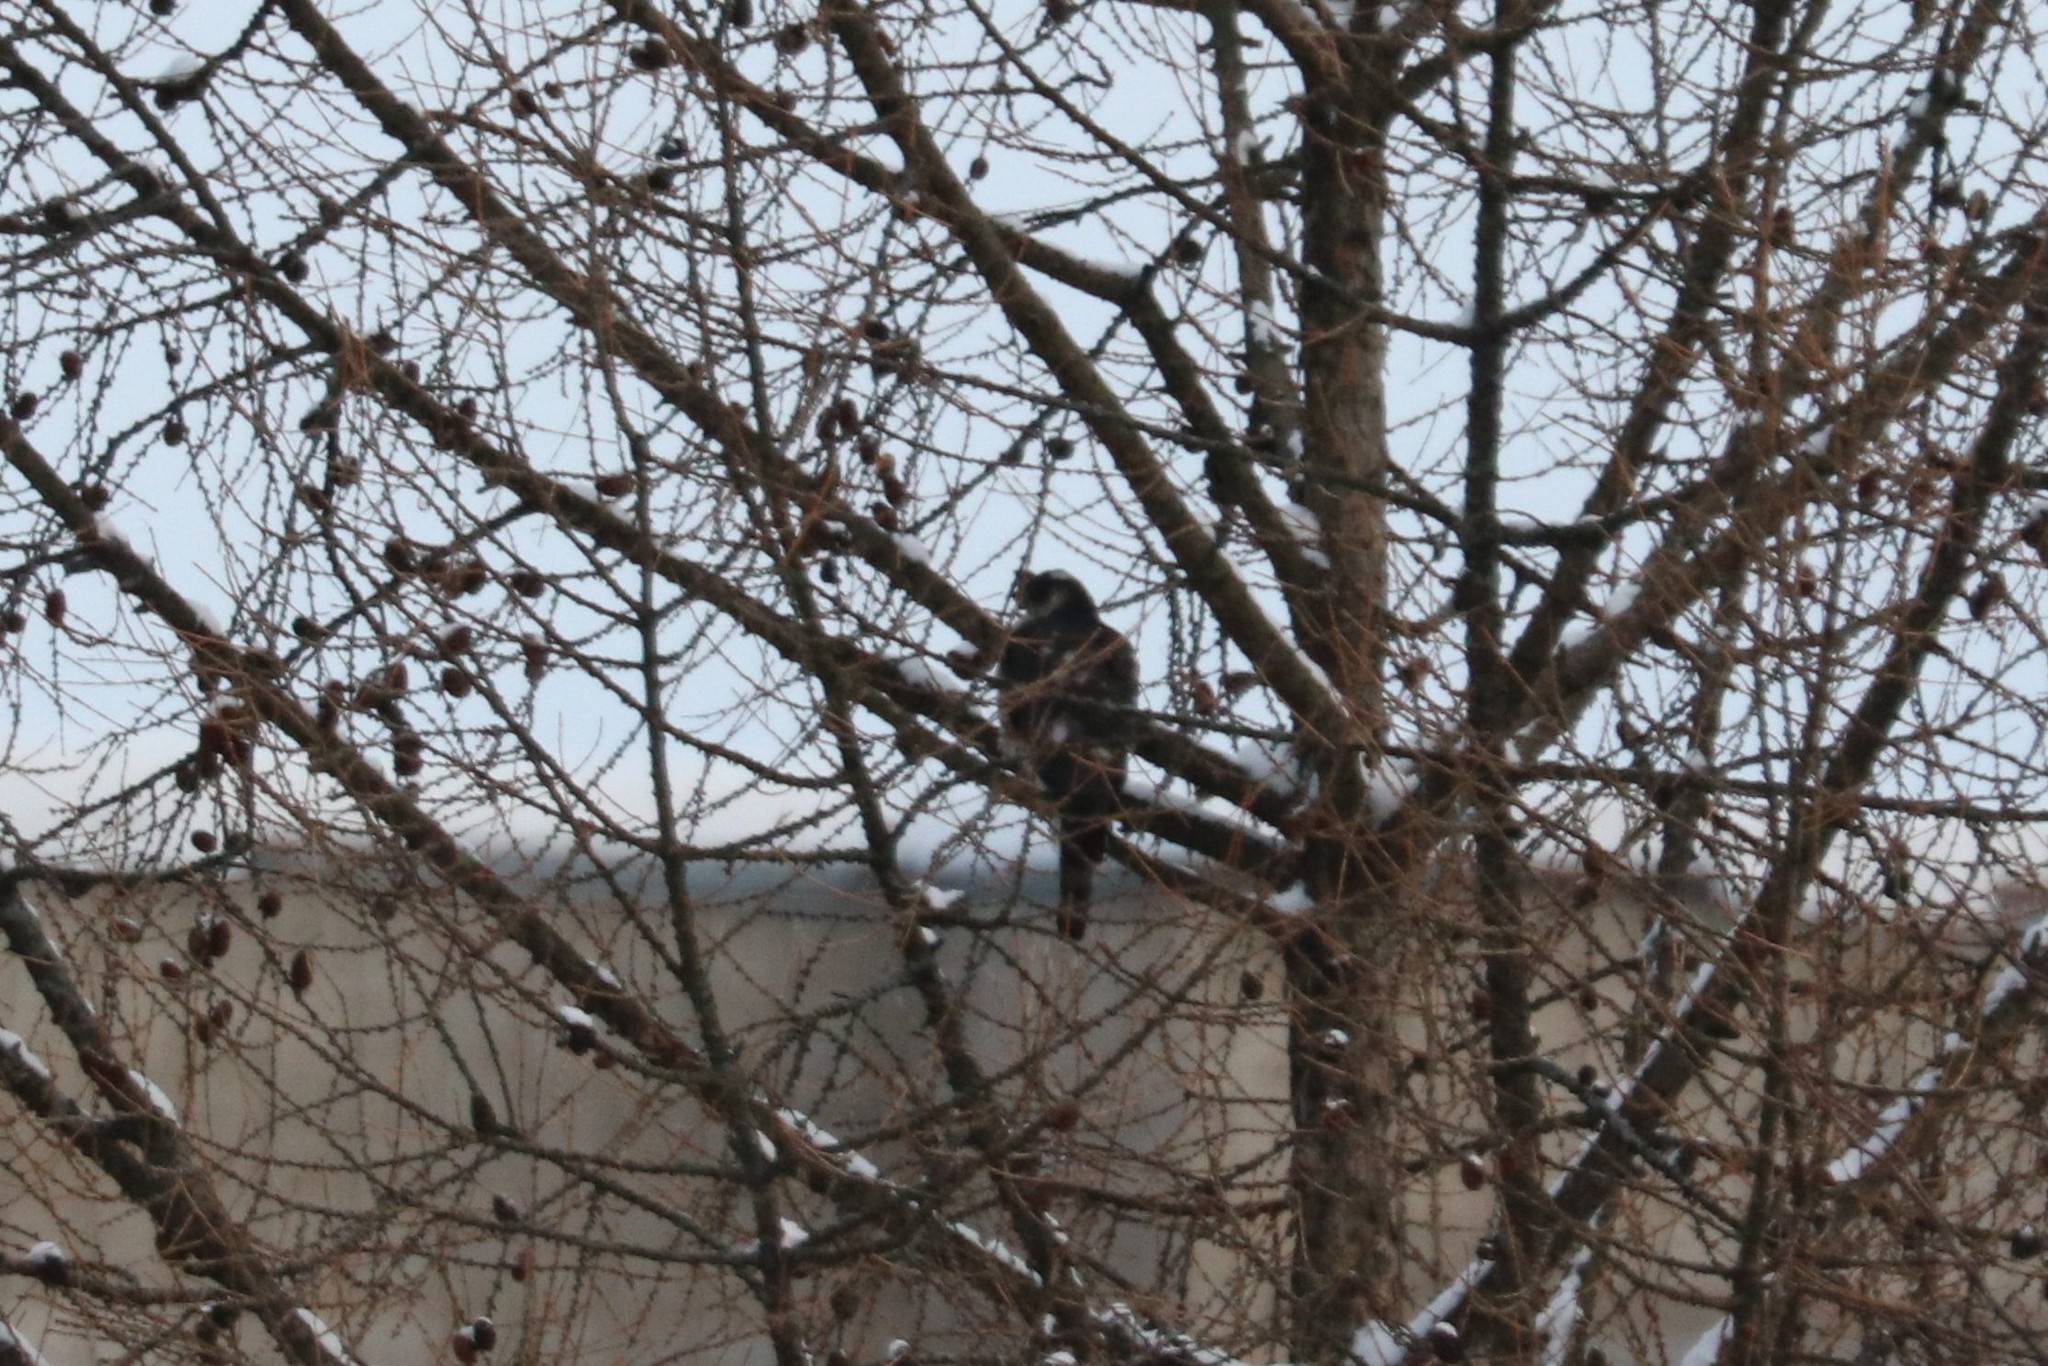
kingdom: Animalia
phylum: Chordata
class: Aves
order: Accipitriformes
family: Accipitridae
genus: Accipiter
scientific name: Accipiter nisus
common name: Eurasian sparrowhawk
